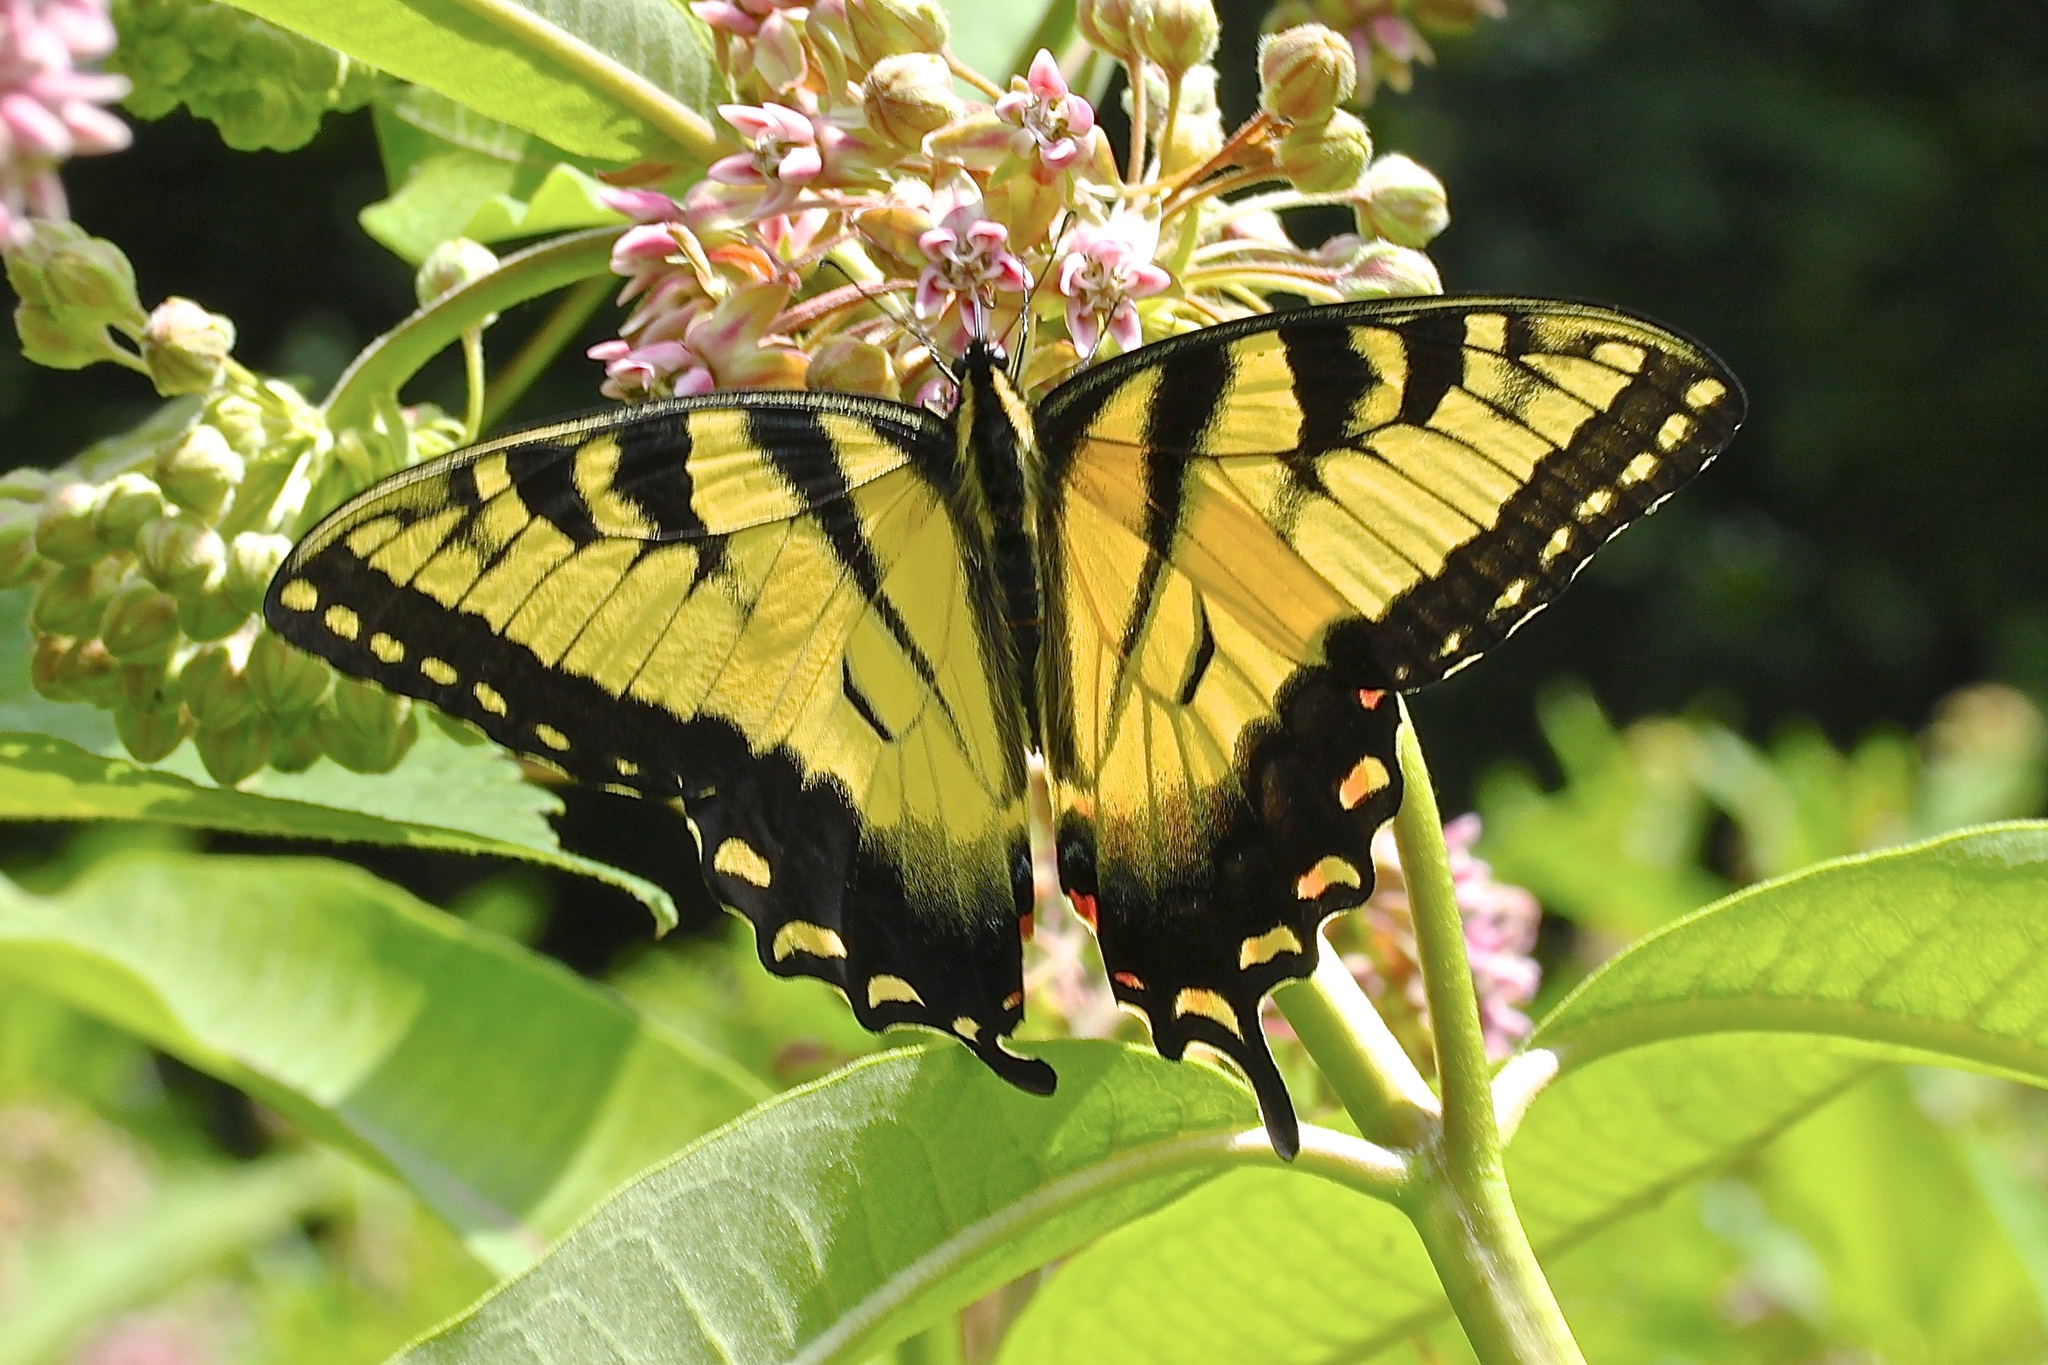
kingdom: Animalia
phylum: Arthropoda
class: Insecta
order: Lepidoptera
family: Papilionidae
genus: Papilio
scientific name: Papilio glaucus
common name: Tiger swallowtail
